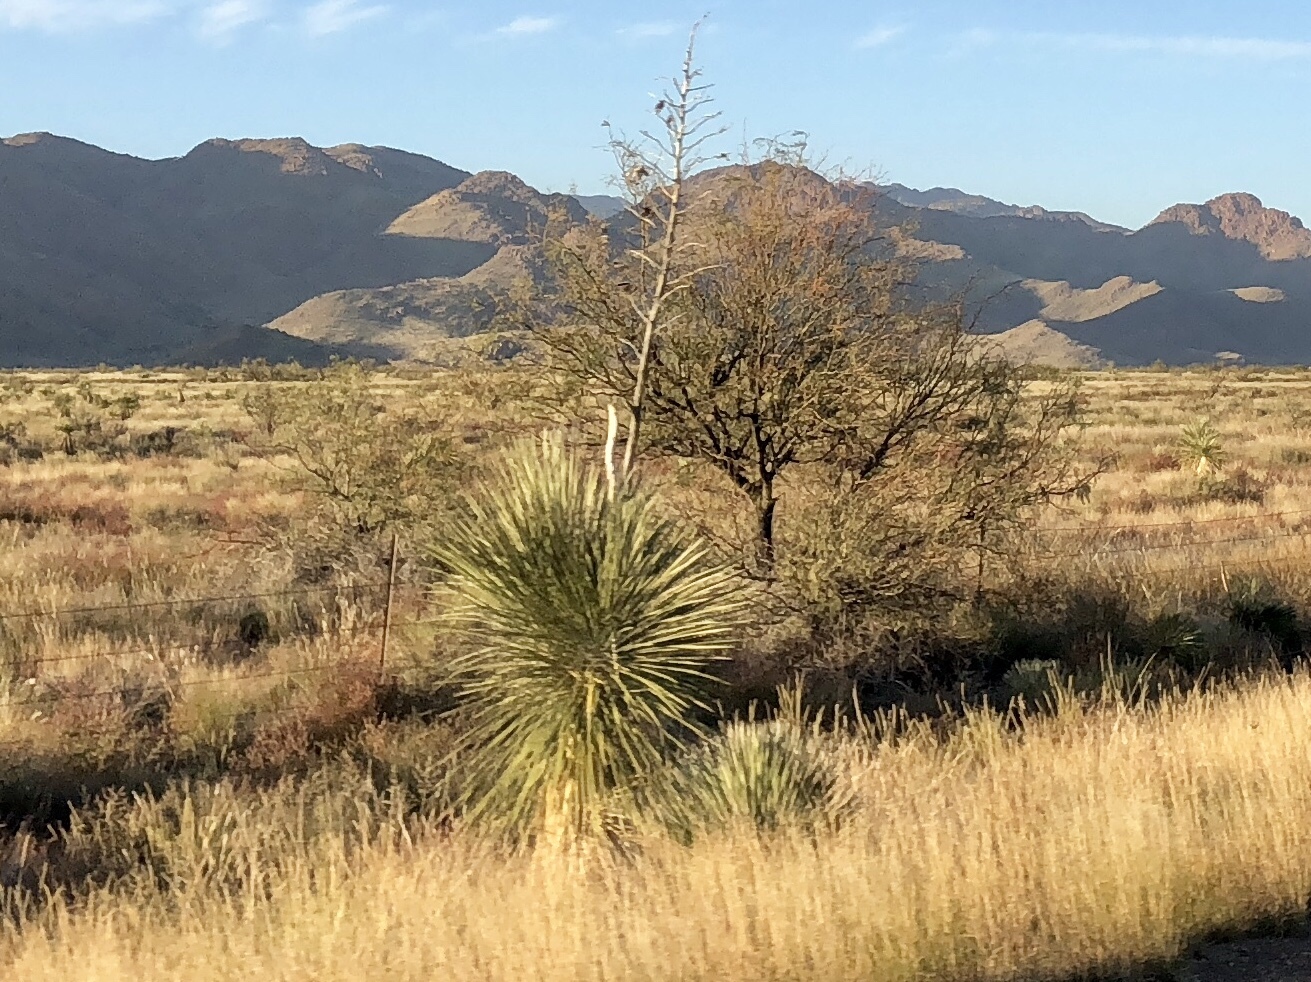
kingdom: Plantae
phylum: Tracheophyta
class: Liliopsida
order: Asparagales
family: Asparagaceae
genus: Yucca
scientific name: Yucca elata
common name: Palmella
